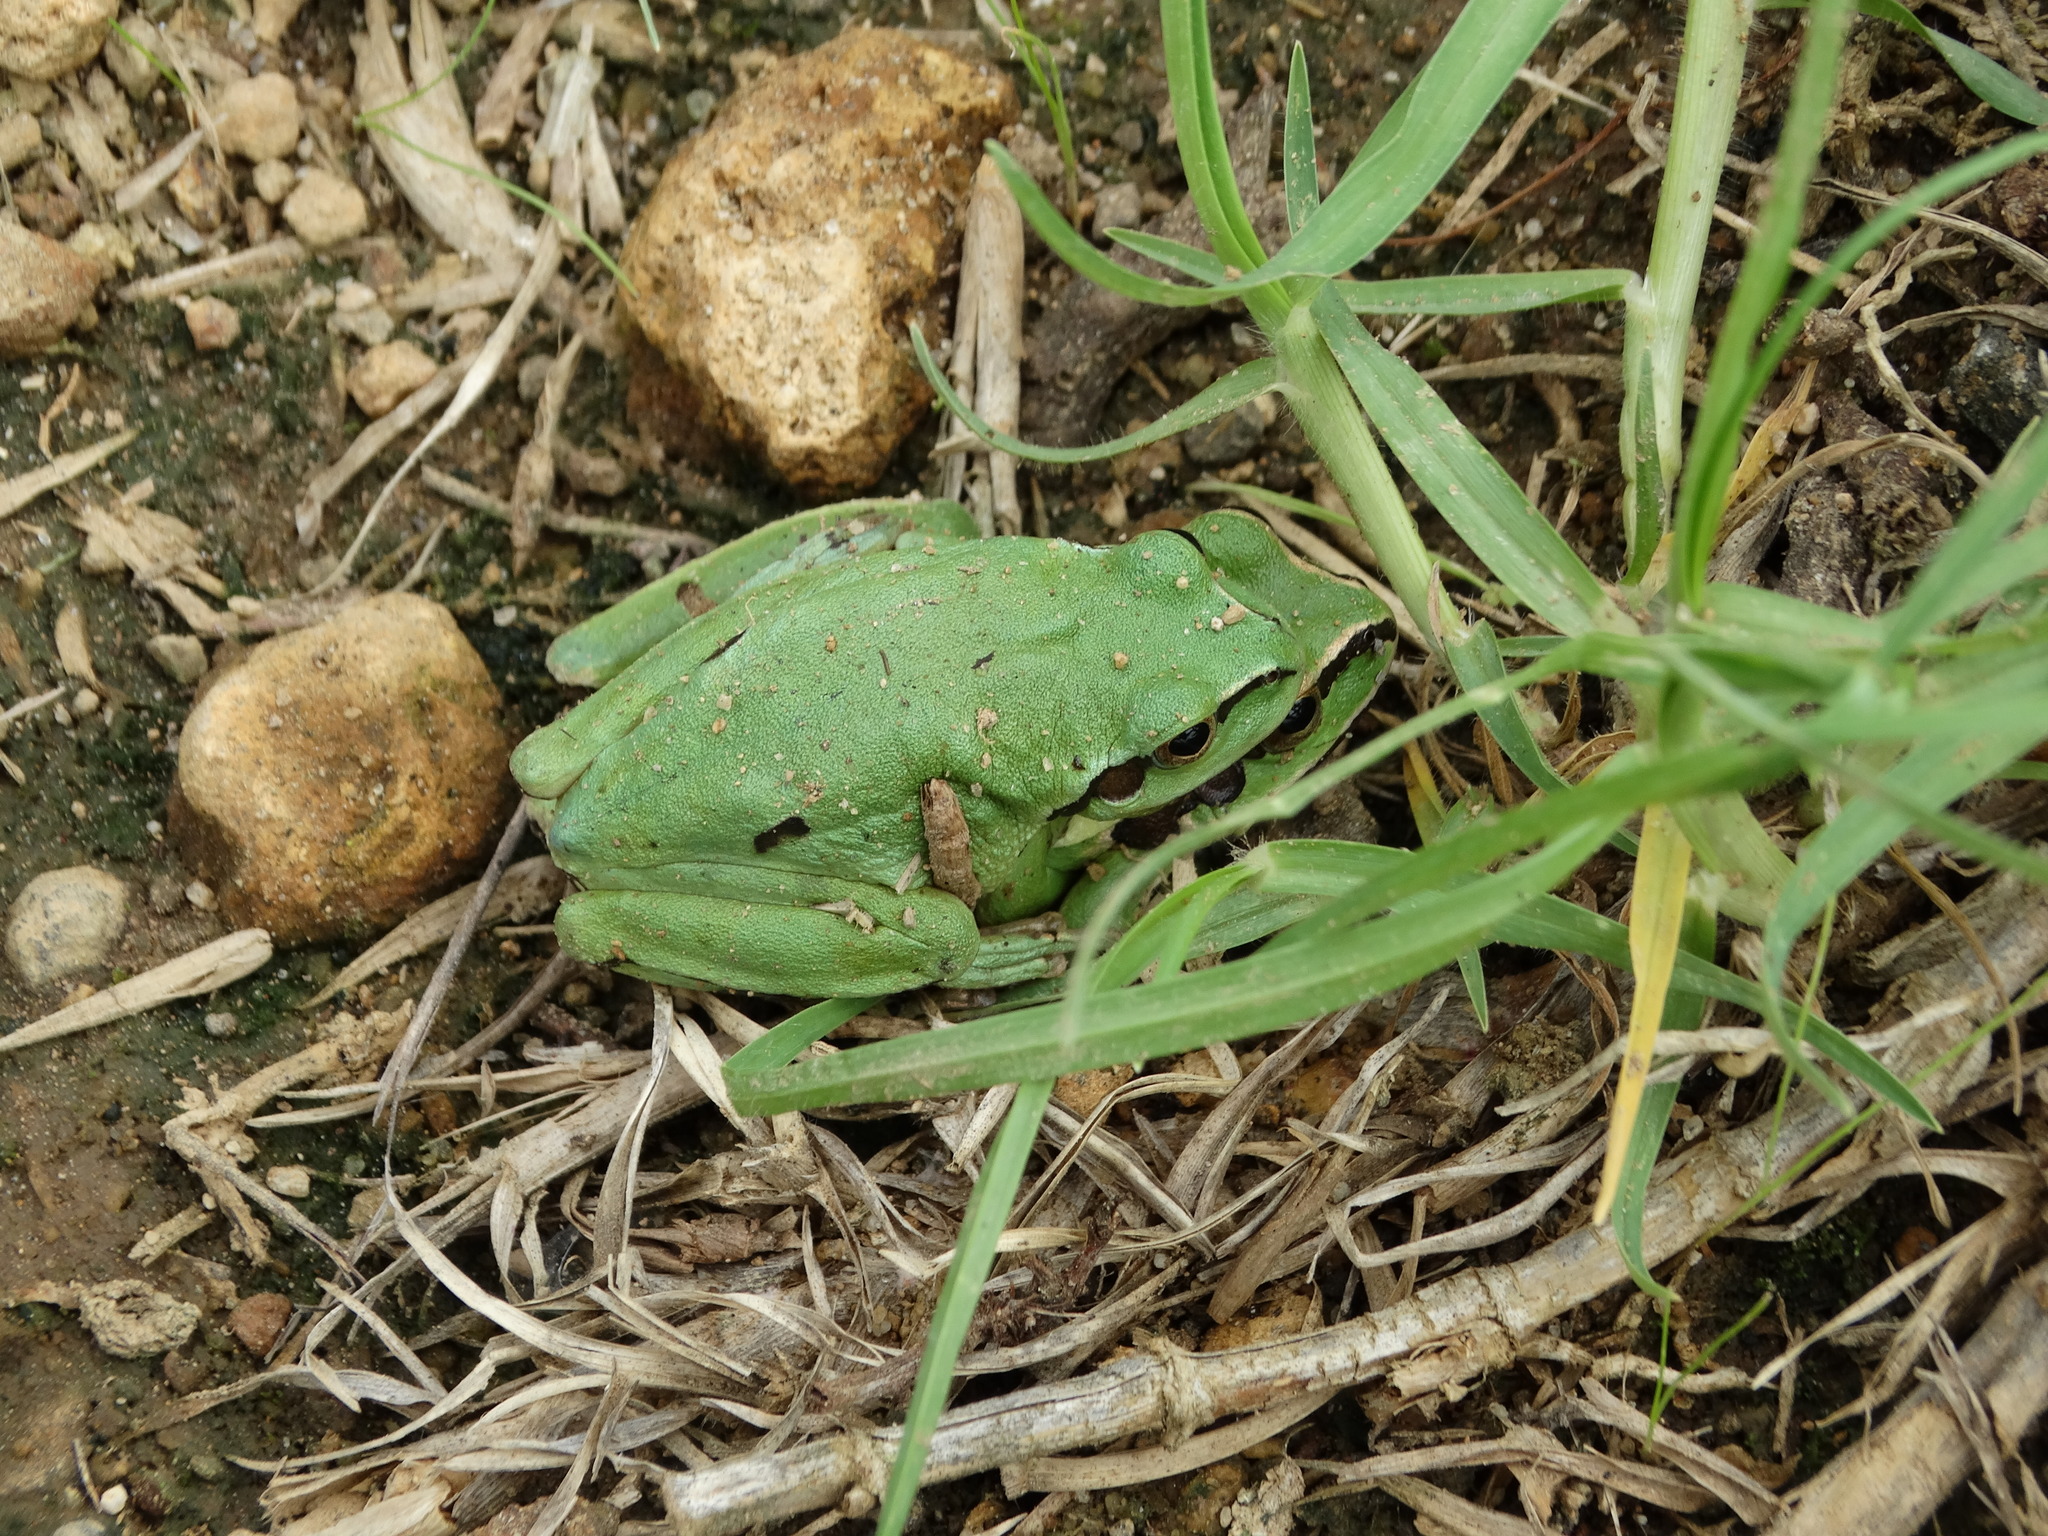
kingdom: Animalia
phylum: Chordata
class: Amphibia
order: Anura
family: Hylidae
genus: Dryophytes
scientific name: Dryophytes plicatus
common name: Ridged treefrog
